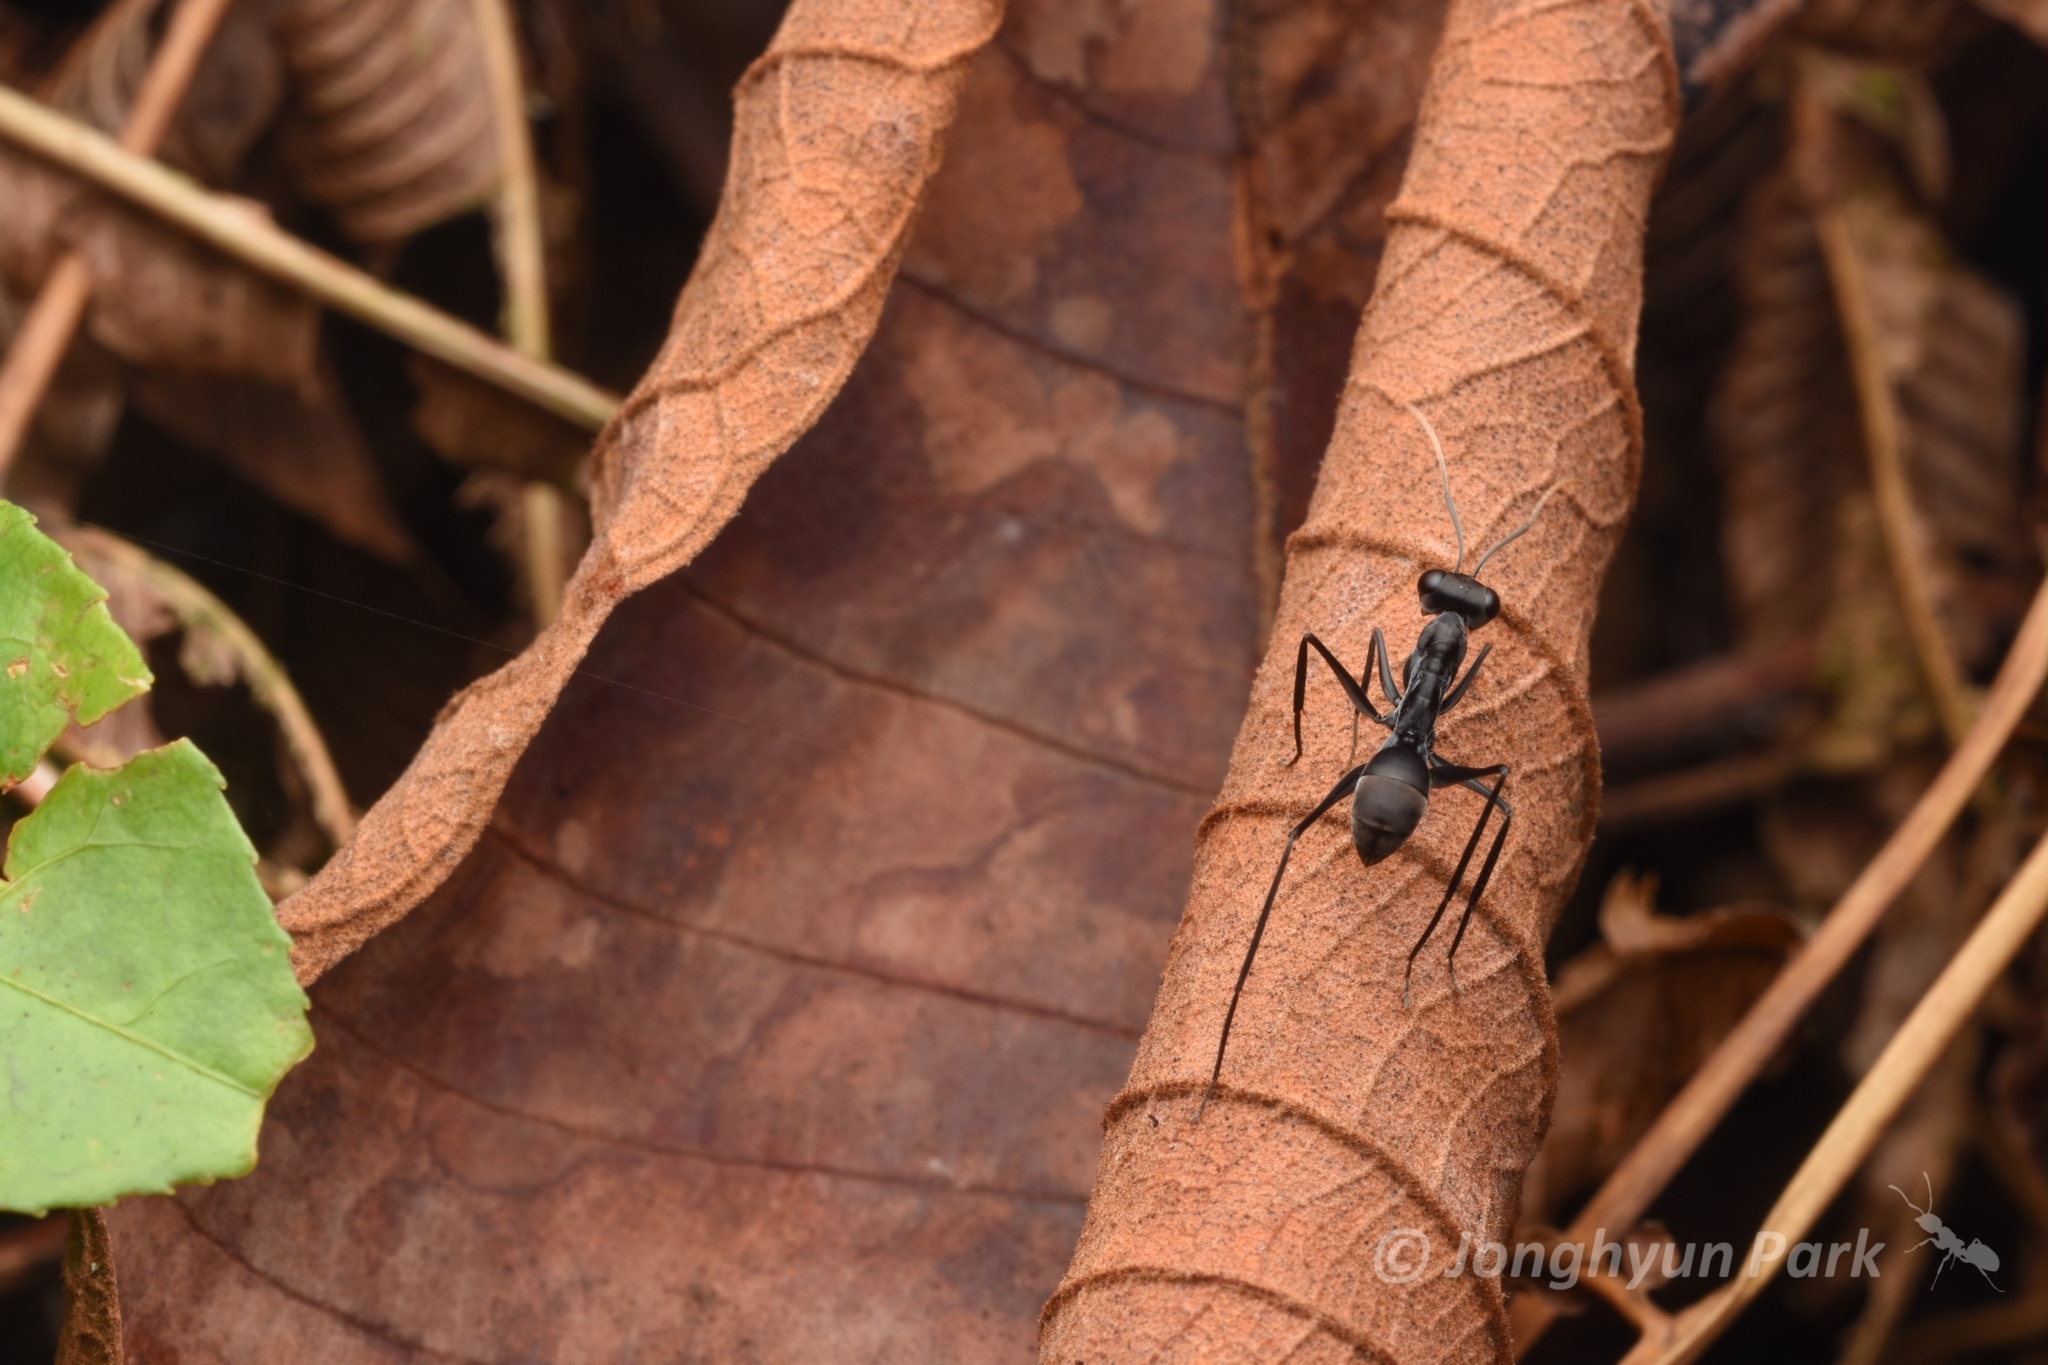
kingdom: Animalia
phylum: Arthropoda
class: Insecta
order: Hymenoptera
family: Formicidae
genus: Gigantiops
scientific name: Gigantiops destructor
